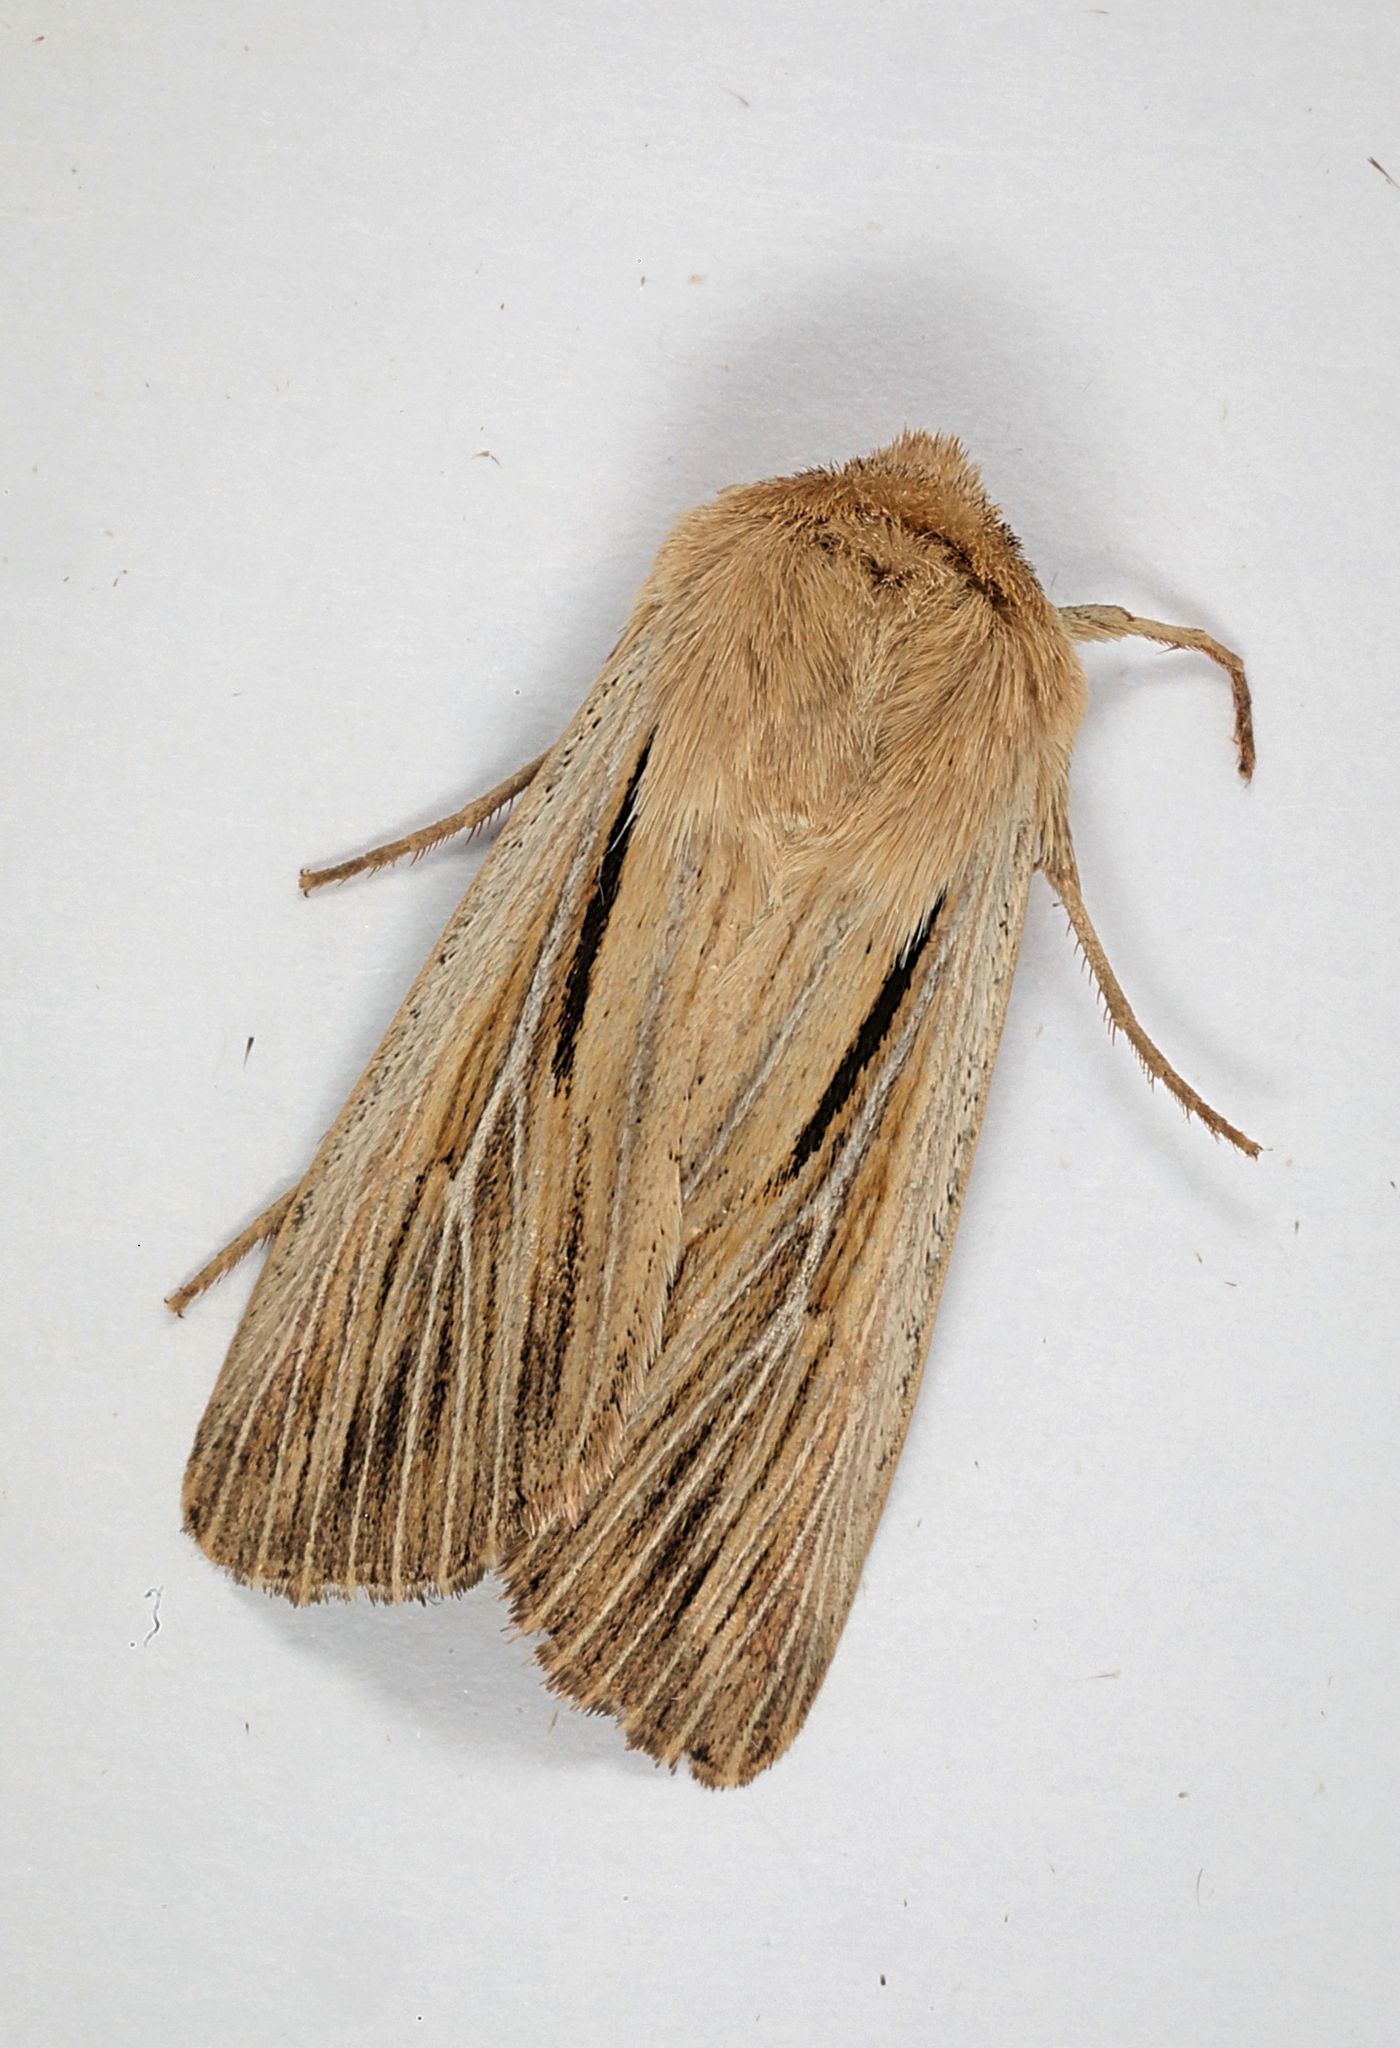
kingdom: Animalia
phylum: Arthropoda
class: Insecta
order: Lepidoptera
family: Noctuidae
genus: Leucania
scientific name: Leucania comma
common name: Shoulder-striped wainscot
